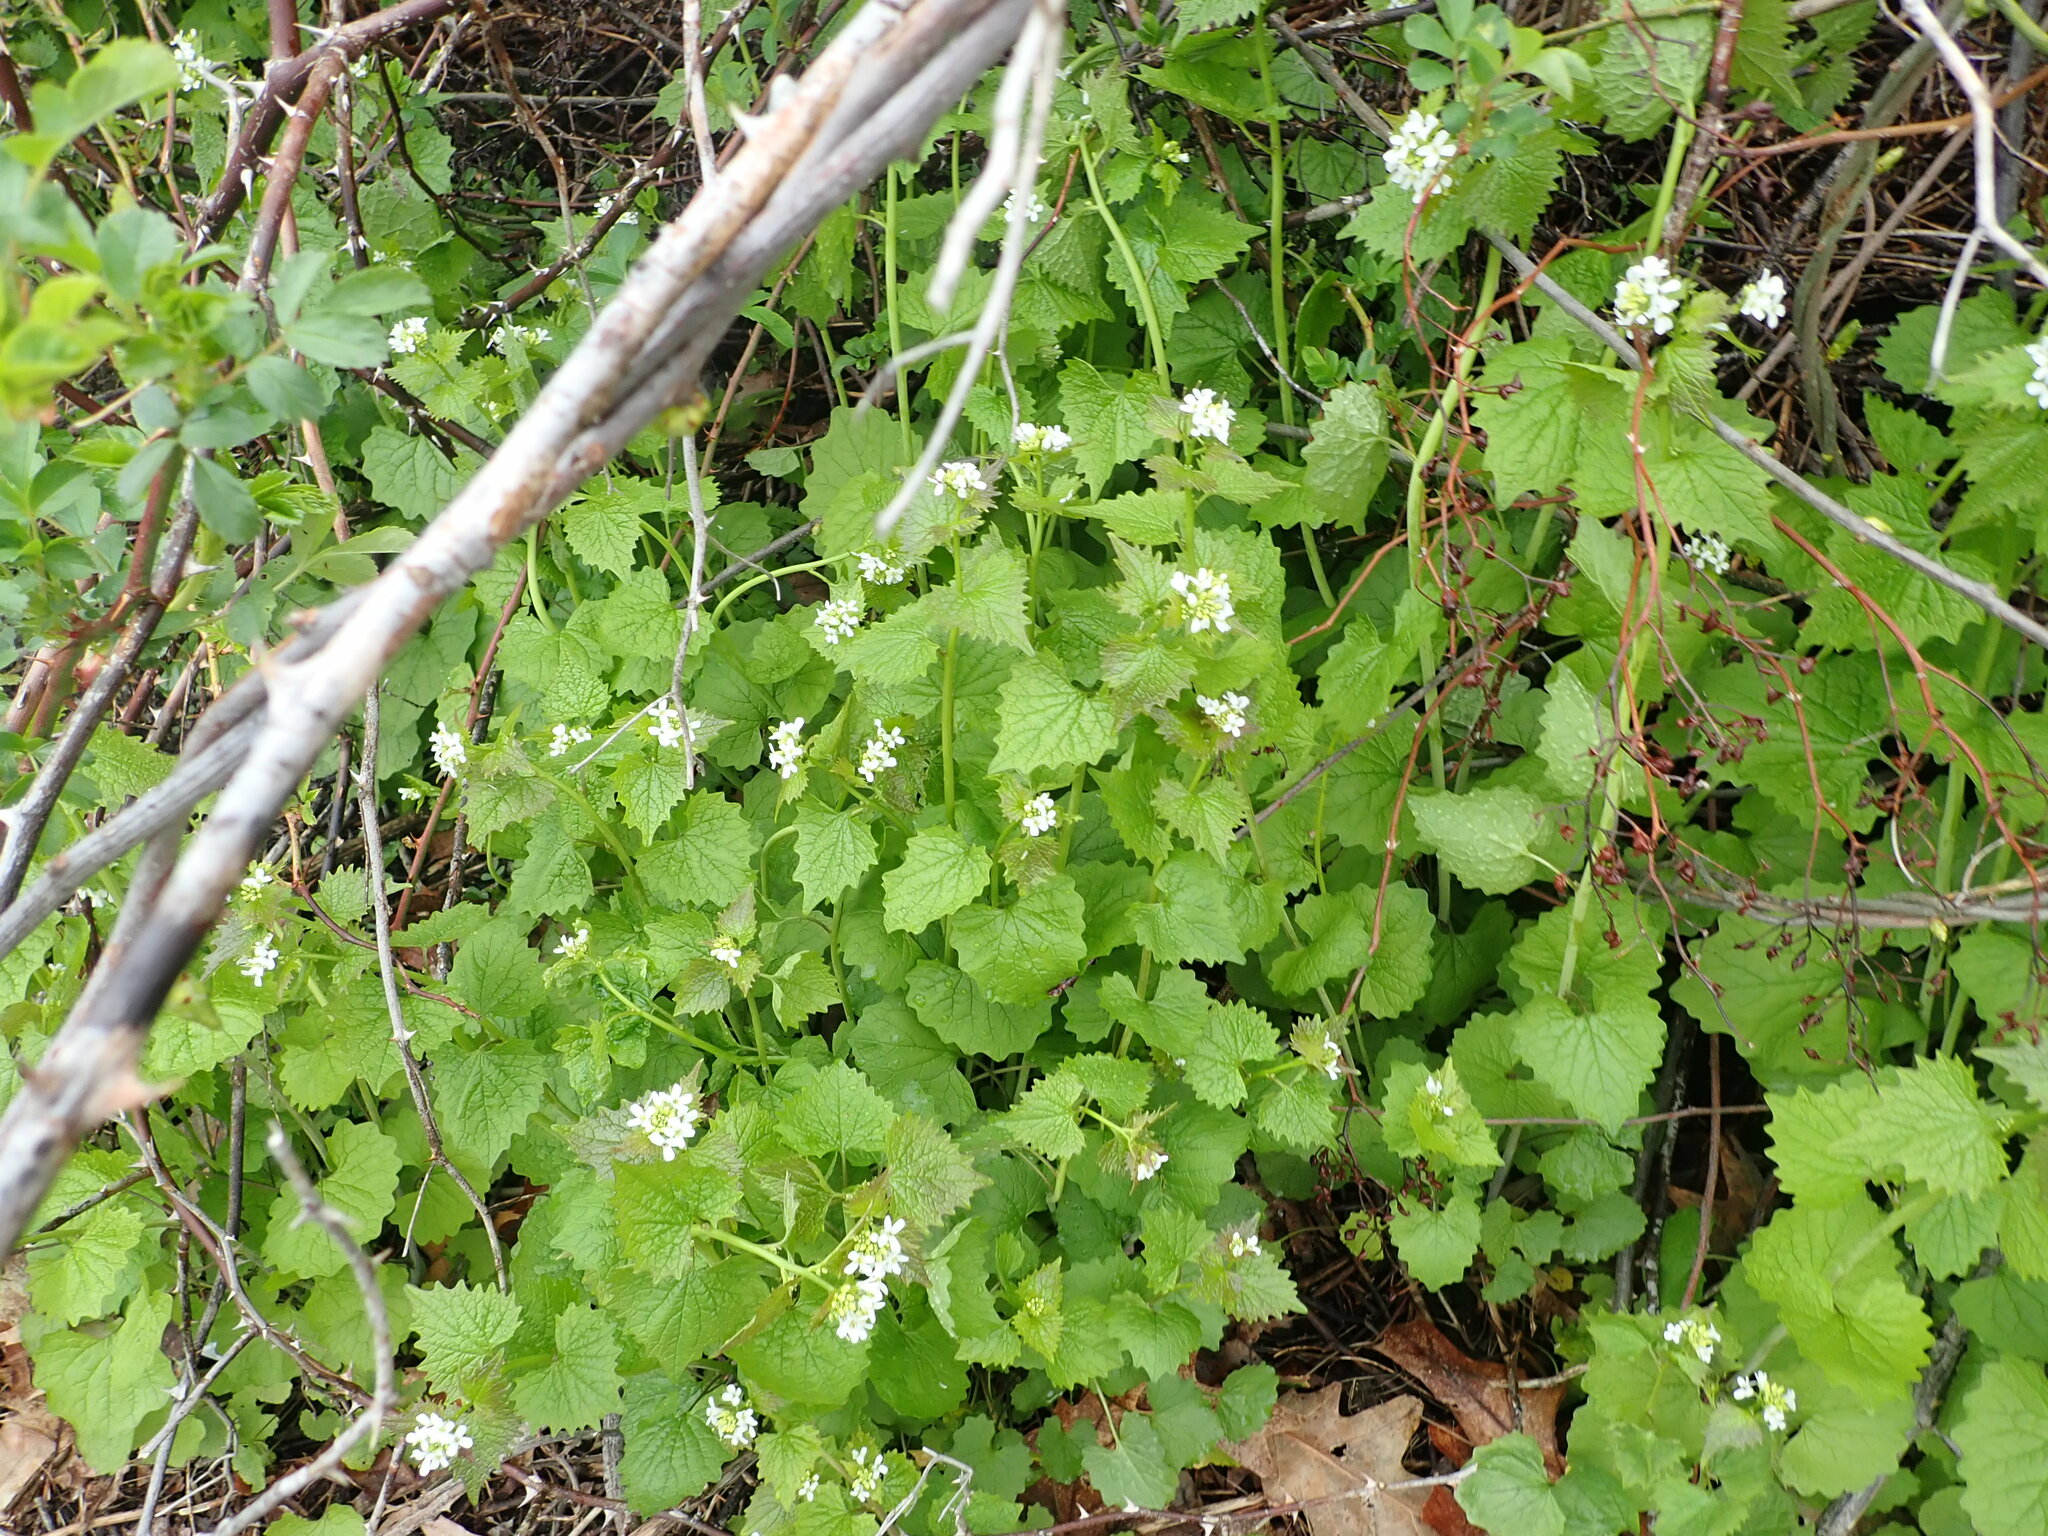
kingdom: Plantae
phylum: Tracheophyta
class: Magnoliopsida
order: Brassicales
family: Brassicaceae
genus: Alliaria
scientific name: Alliaria petiolata
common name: Garlic mustard
